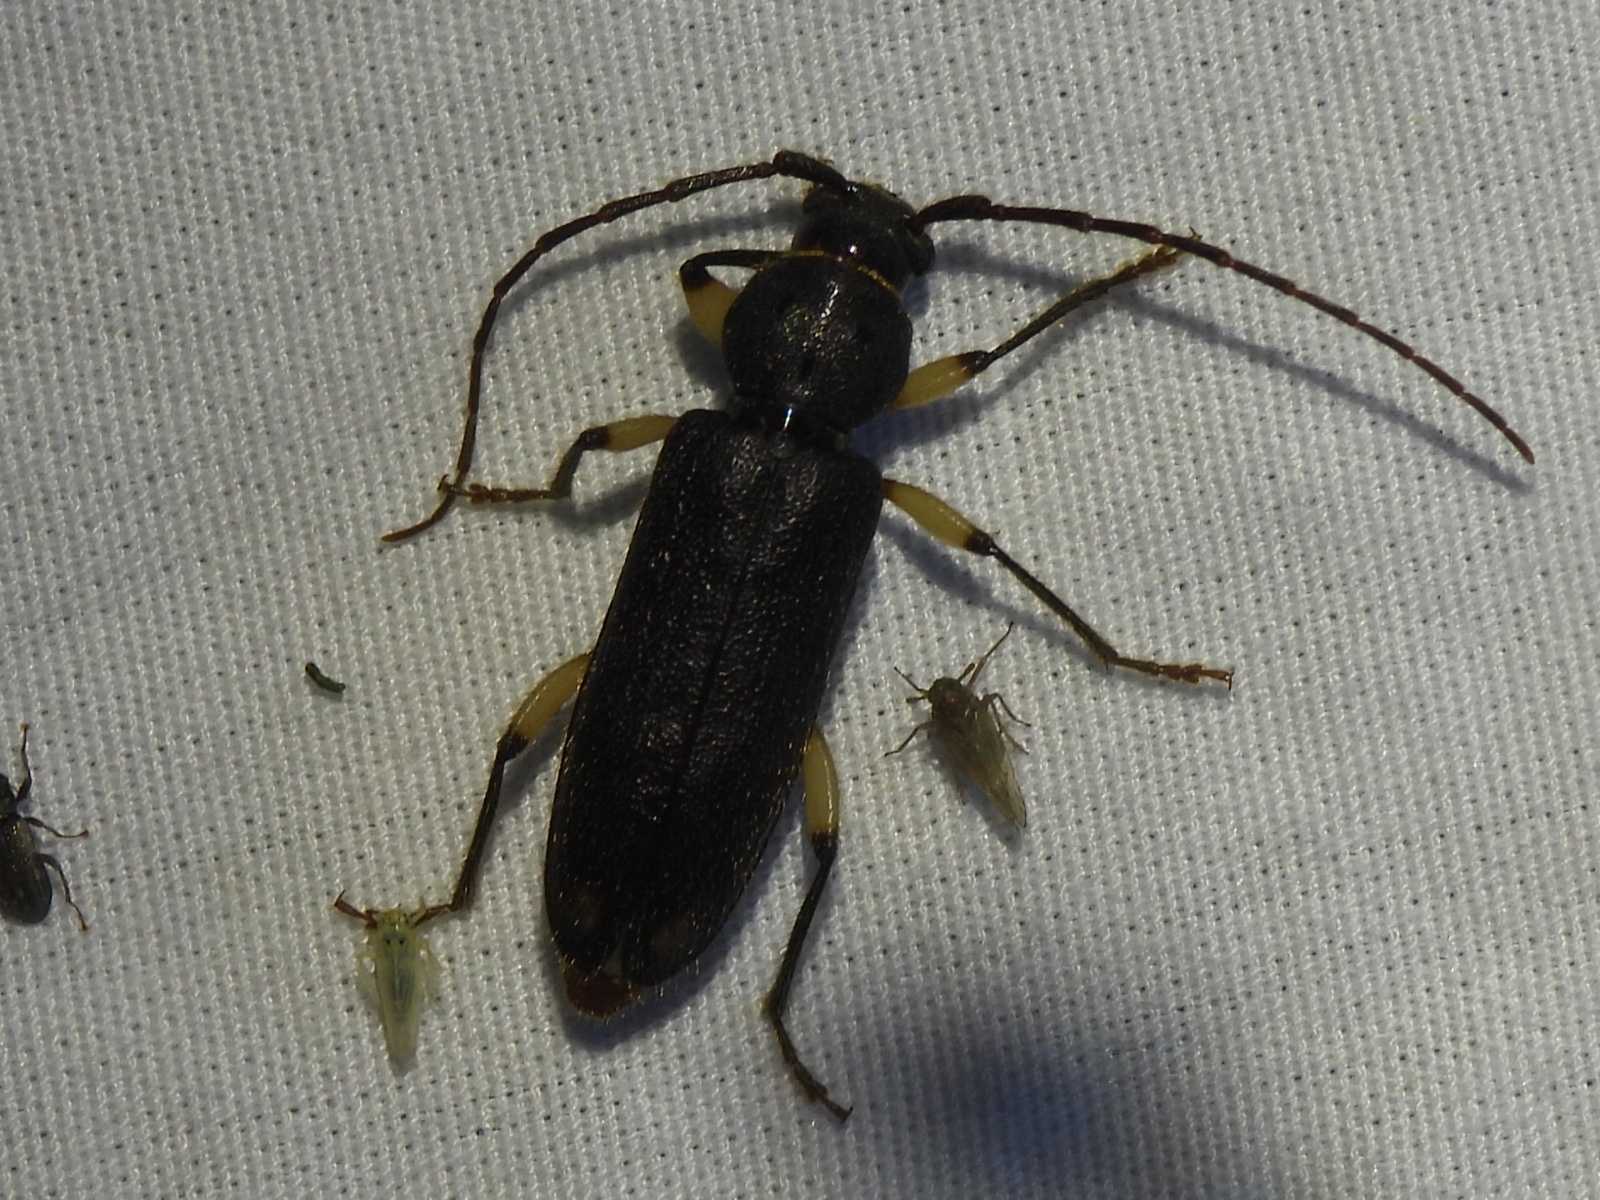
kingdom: Animalia
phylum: Arthropoda
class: Insecta
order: Coleoptera
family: Cerambycidae
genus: Tylonotus
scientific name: Tylonotus bimaculatus
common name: Ash and privet borer
